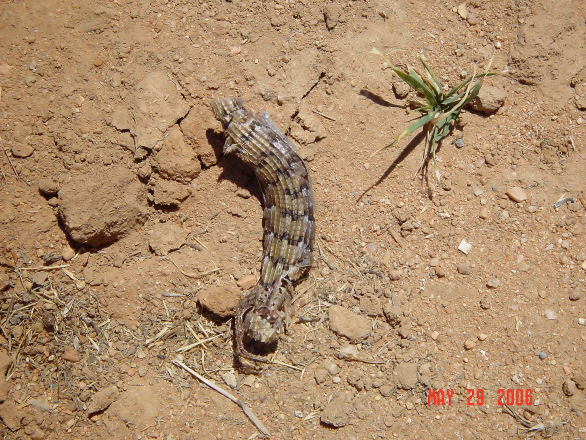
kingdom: Animalia
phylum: Chordata
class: Squamata
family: Anguidae
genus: Elgaria
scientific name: Elgaria multicarinata
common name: Southern alligator lizard
